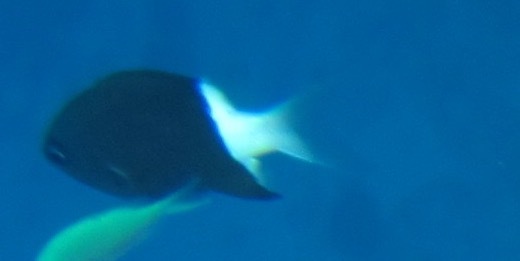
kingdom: Animalia
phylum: Chordata
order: Perciformes
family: Pomacentridae
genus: Pycnochromis
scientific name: Pycnochromis margaritifer
